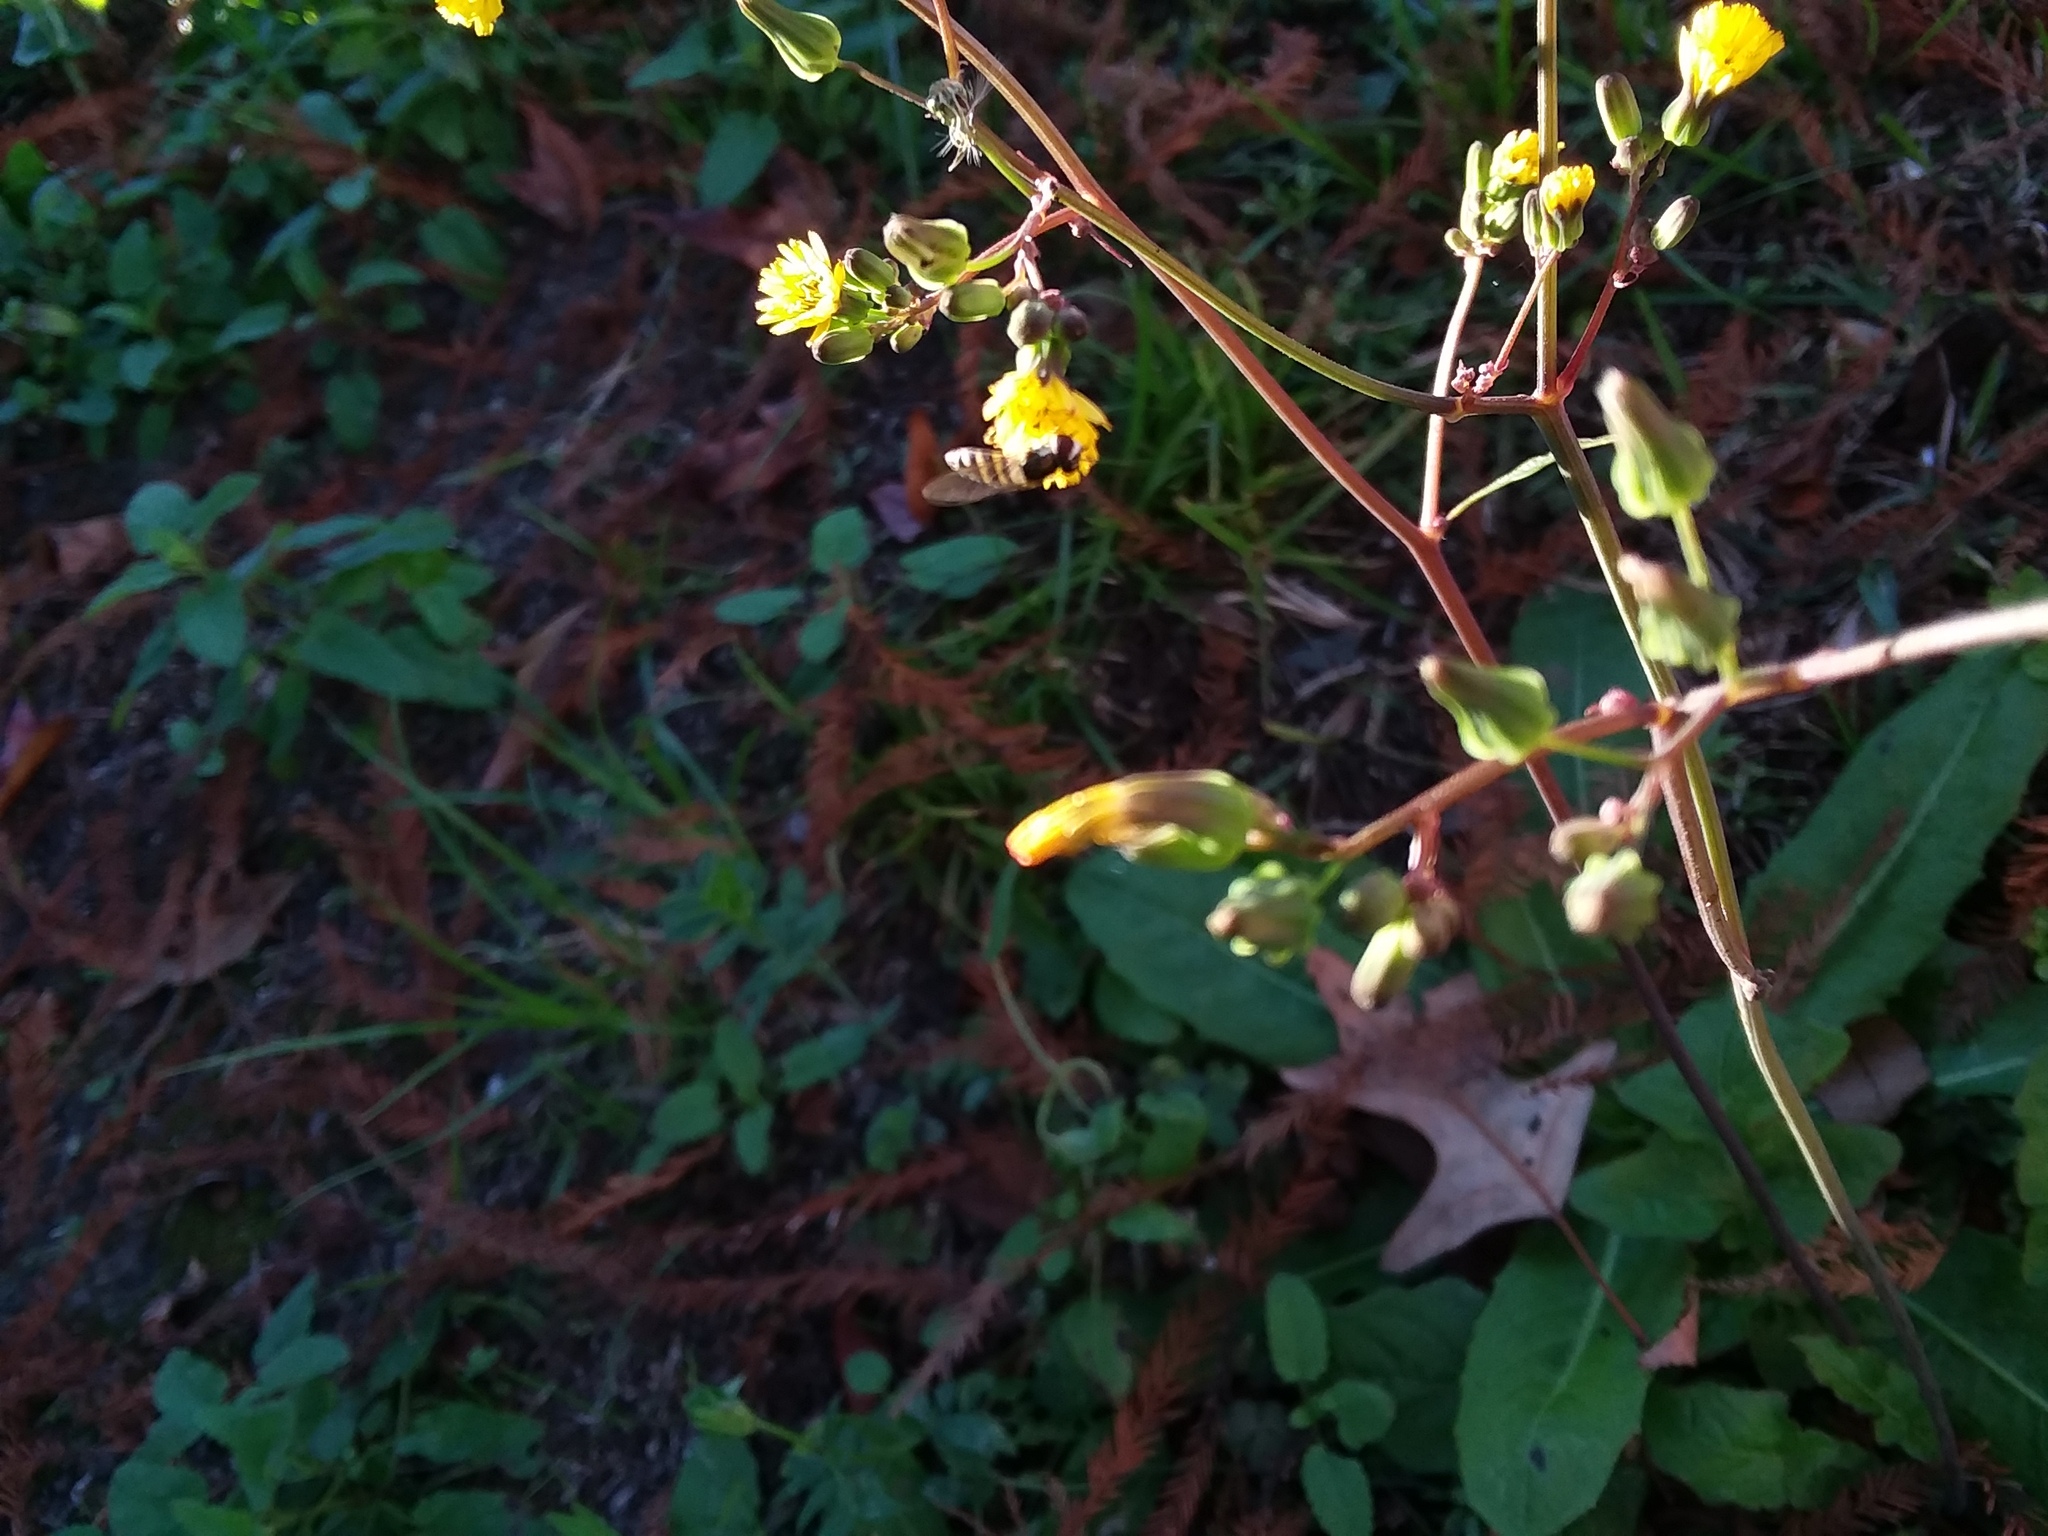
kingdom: Plantae
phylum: Tracheophyta
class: Magnoliopsida
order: Asterales
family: Asteraceae
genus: Youngia
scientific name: Youngia japonica
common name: Oriental false hawksbeard
